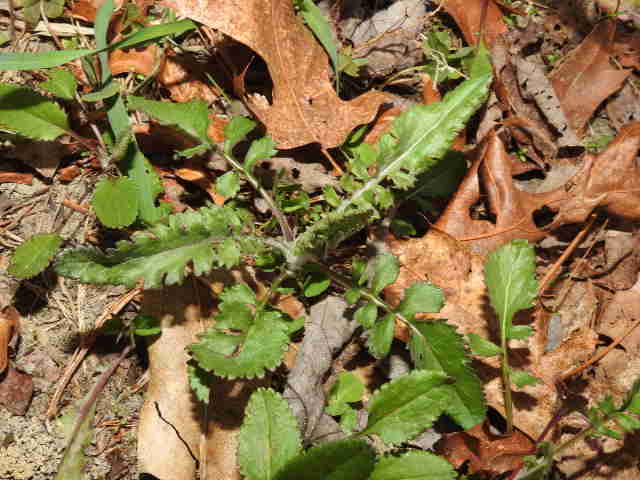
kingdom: Plantae
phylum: Tracheophyta
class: Magnoliopsida
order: Asterales
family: Asteraceae
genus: Packera
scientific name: Packera anonyma
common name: Small ragwort
